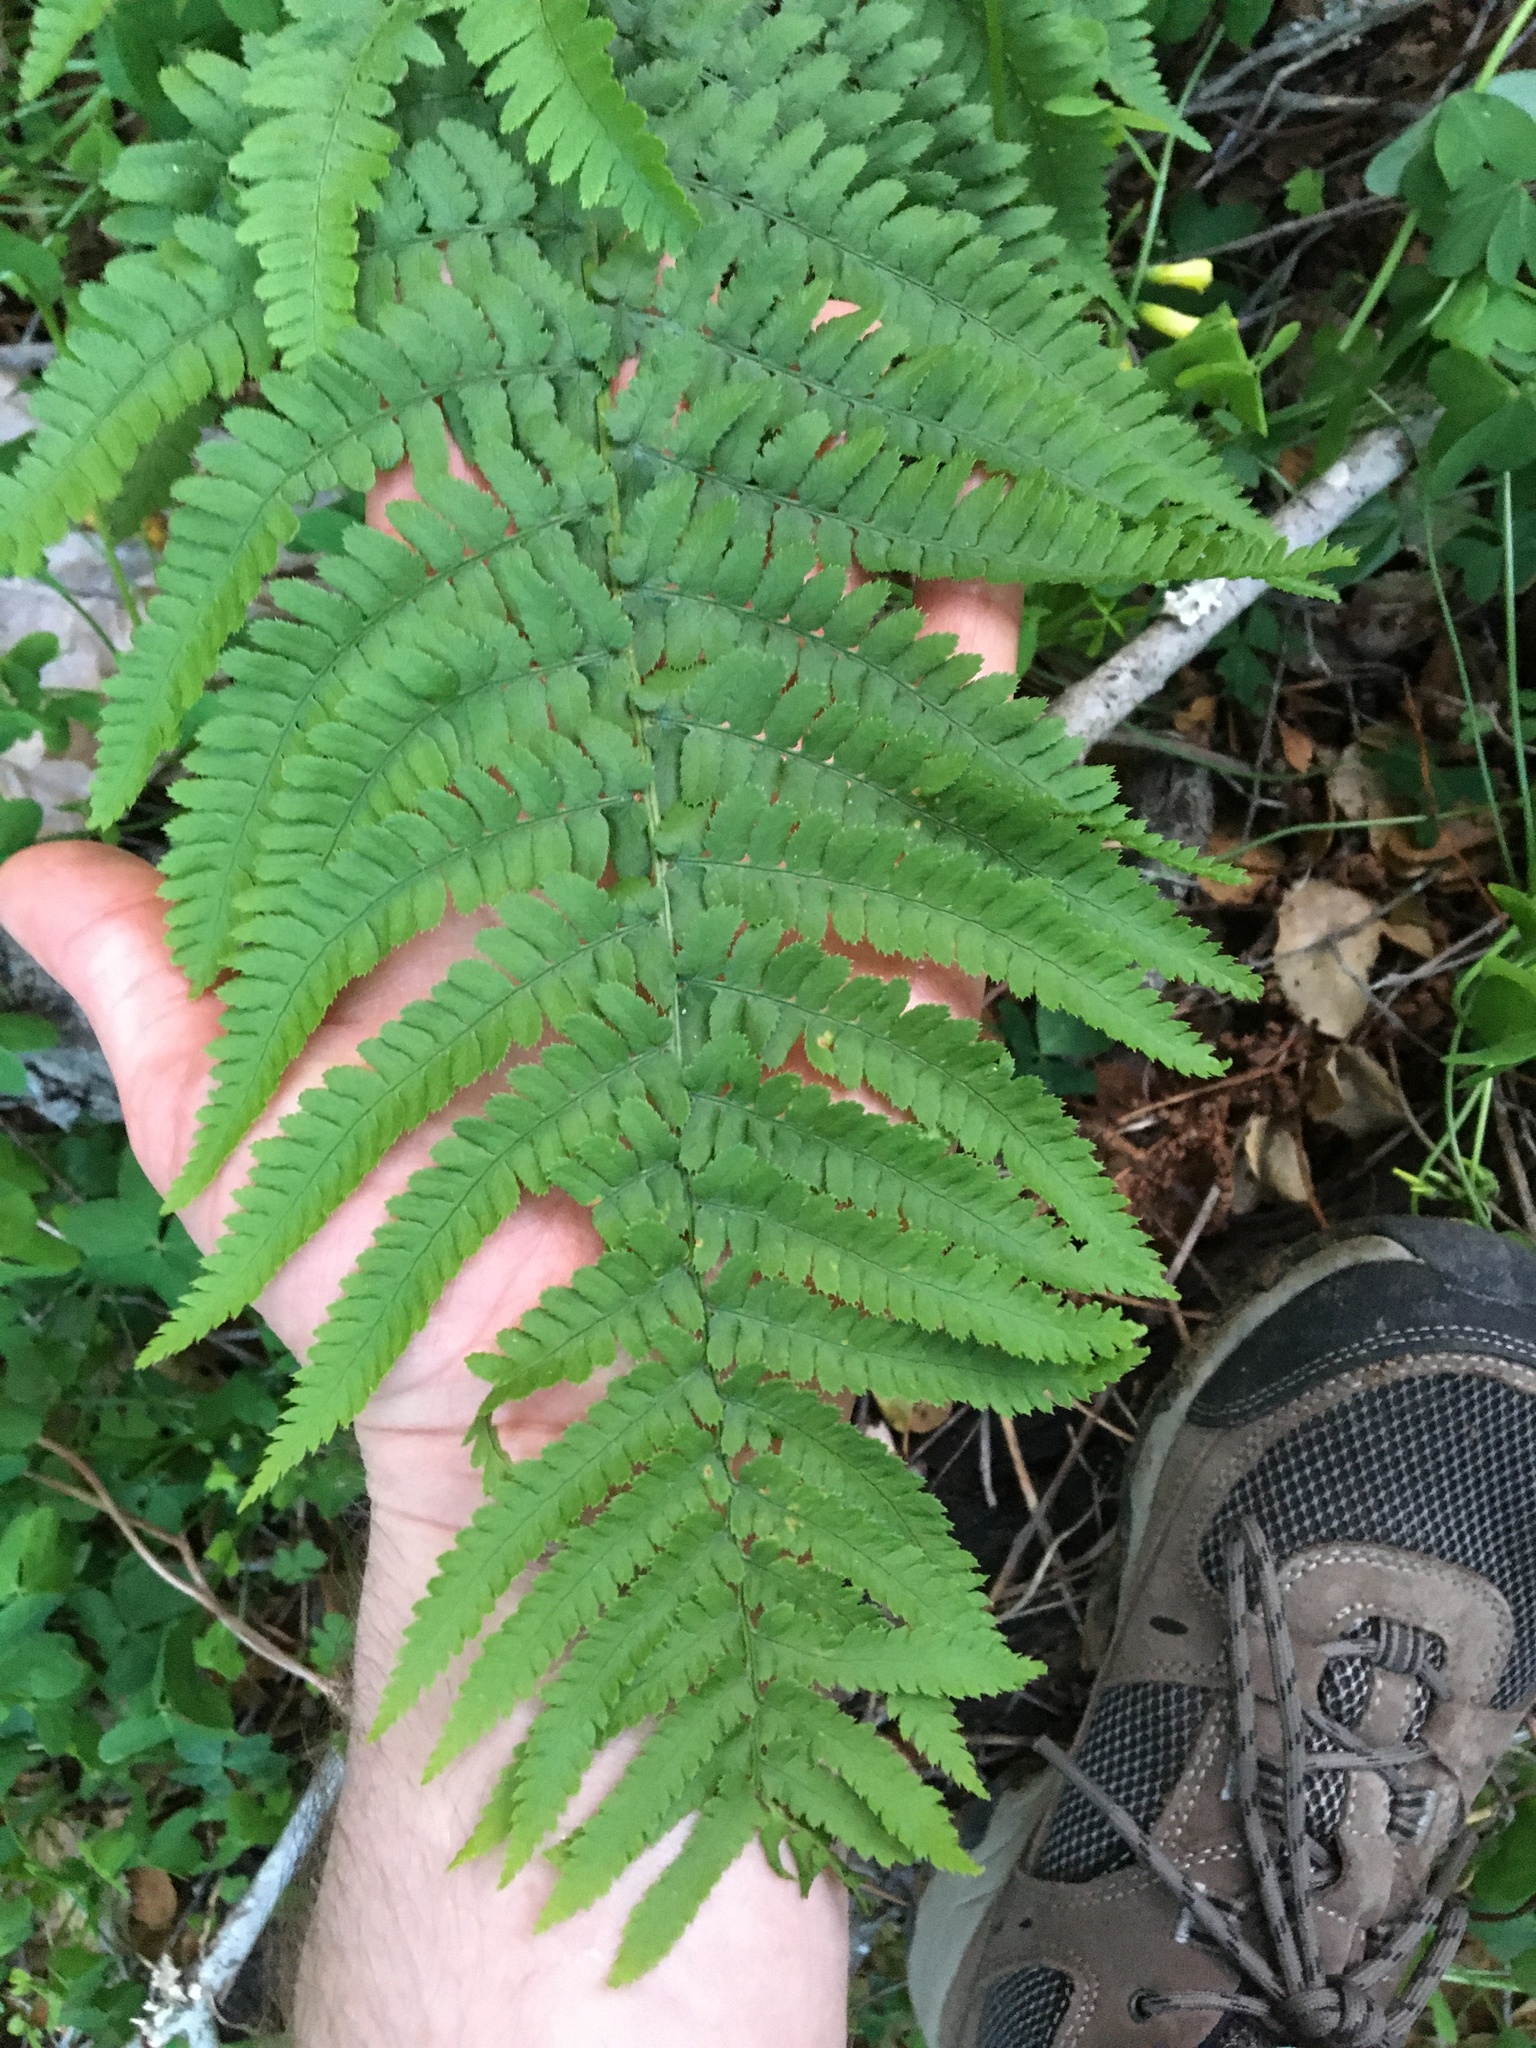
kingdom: Plantae
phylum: Tracheophyta
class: Polypodiopsida
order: Polypodiales
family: Dryopteridaceae
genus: Dryopteris
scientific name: Dryopteris arguta
